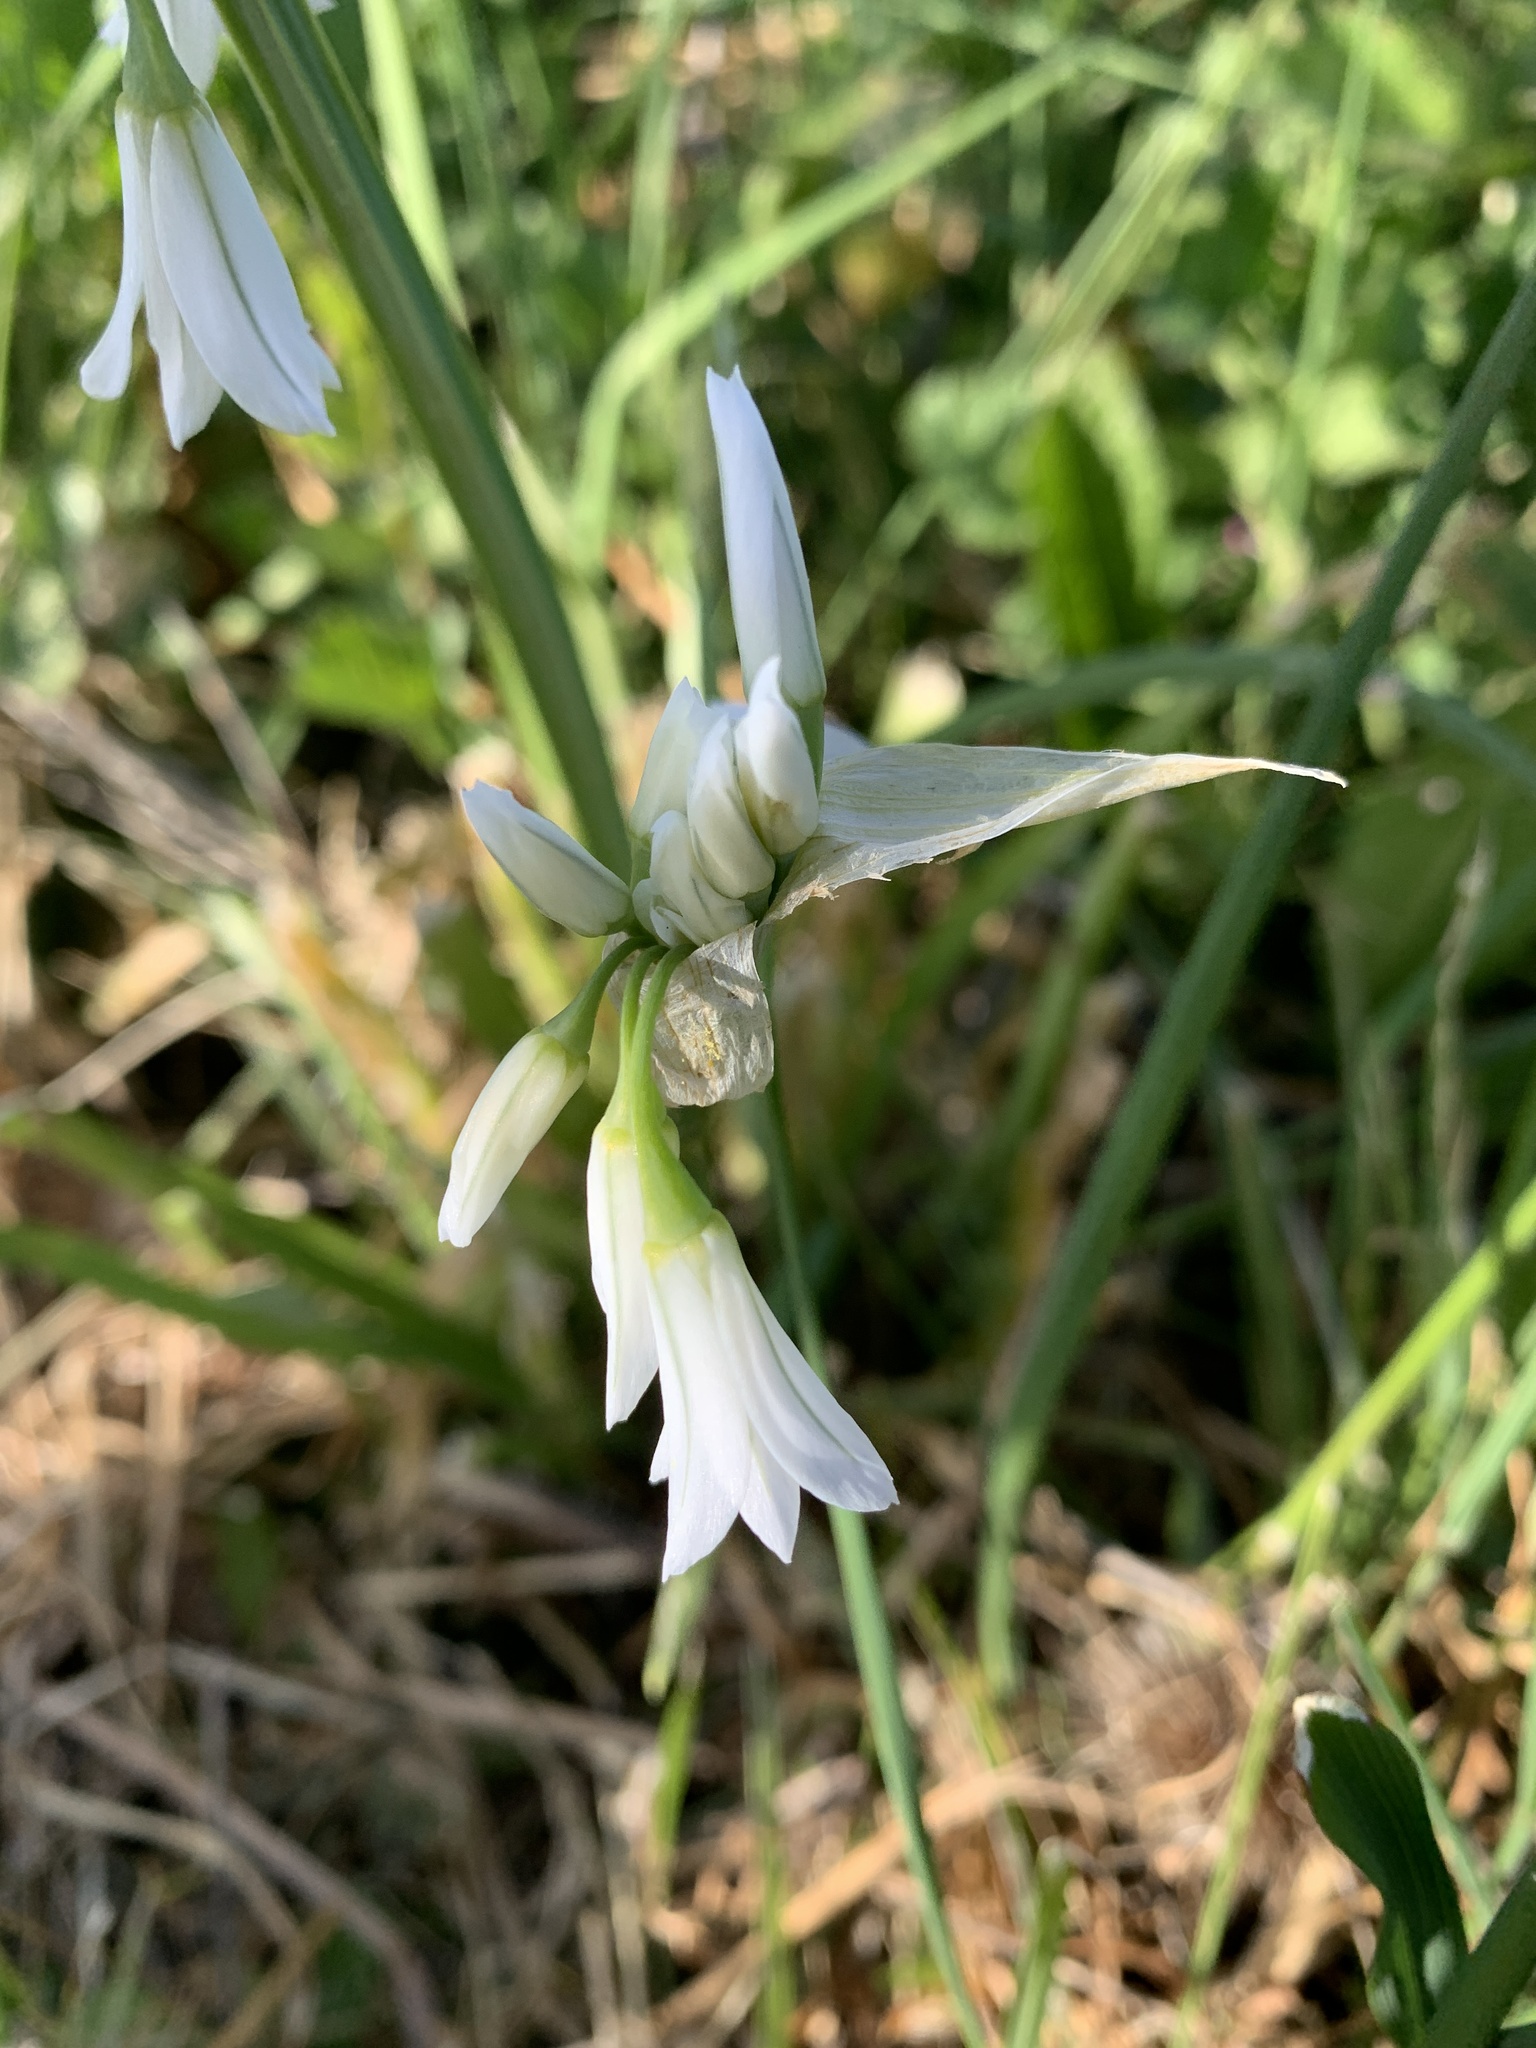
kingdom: Plantae
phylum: Tracheophyta
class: Liliopsida
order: Asparagales
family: Amaryllidaceae
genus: Allium
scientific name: Allium triquetrum
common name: Three-cornered garlic
